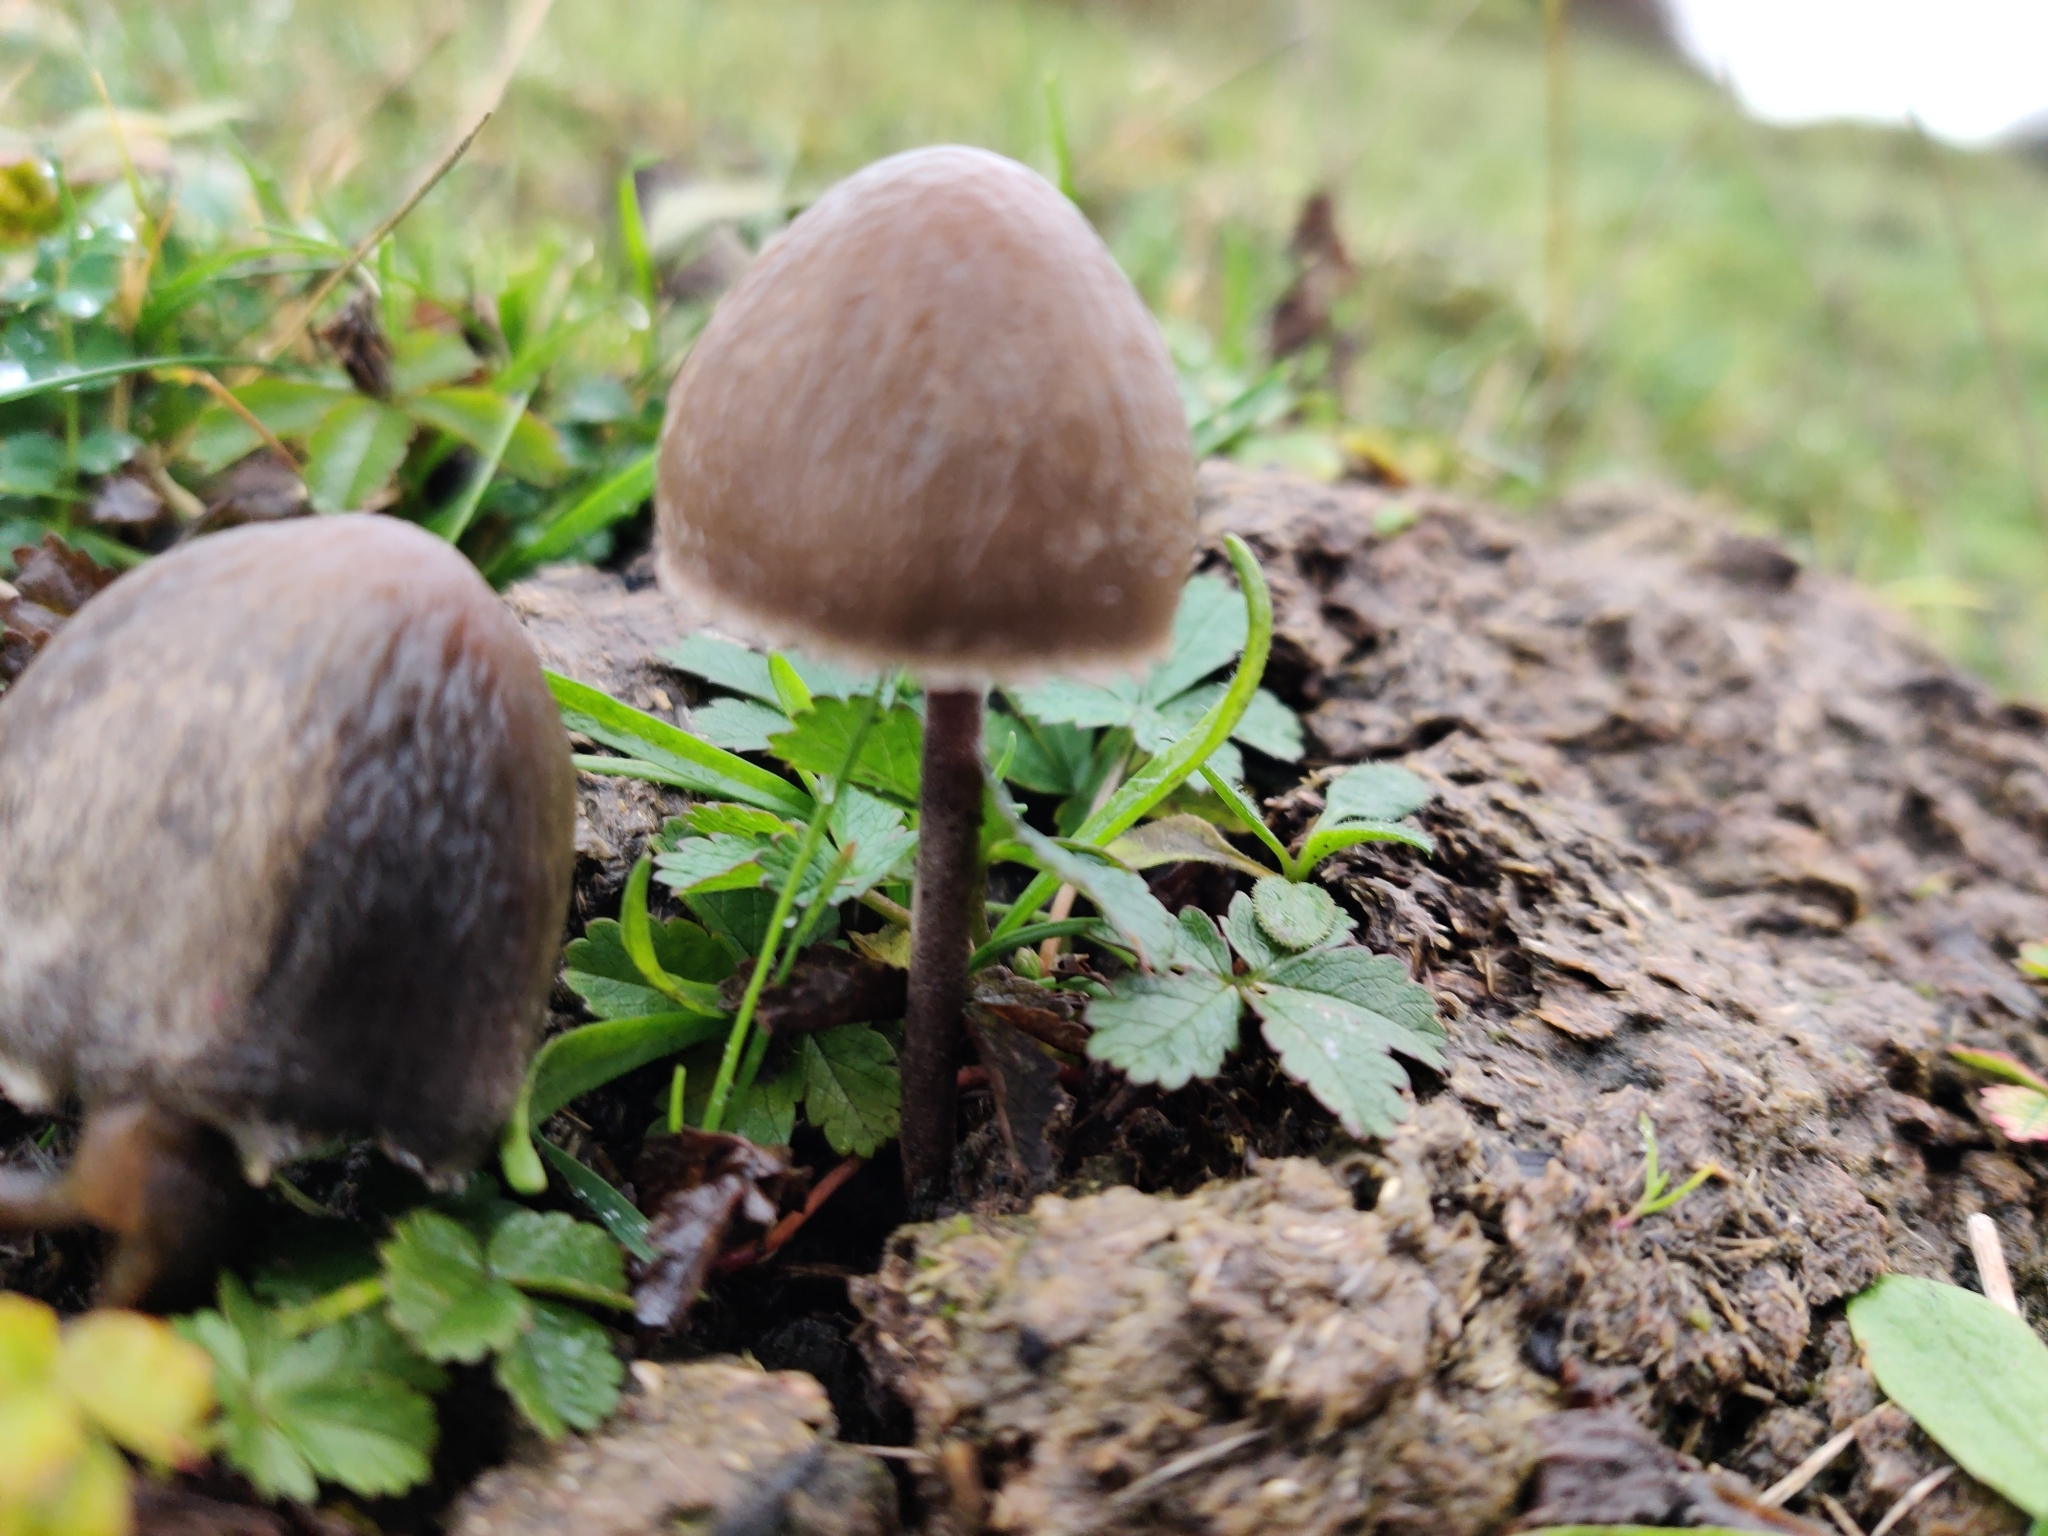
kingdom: Fungi
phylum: Basidiomycota
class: Agaricomycetes
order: Agaricales
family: Bolbitiaceae
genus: Panaeolus
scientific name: Panaeolus papilionaceus
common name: Petticoat mottlegill
